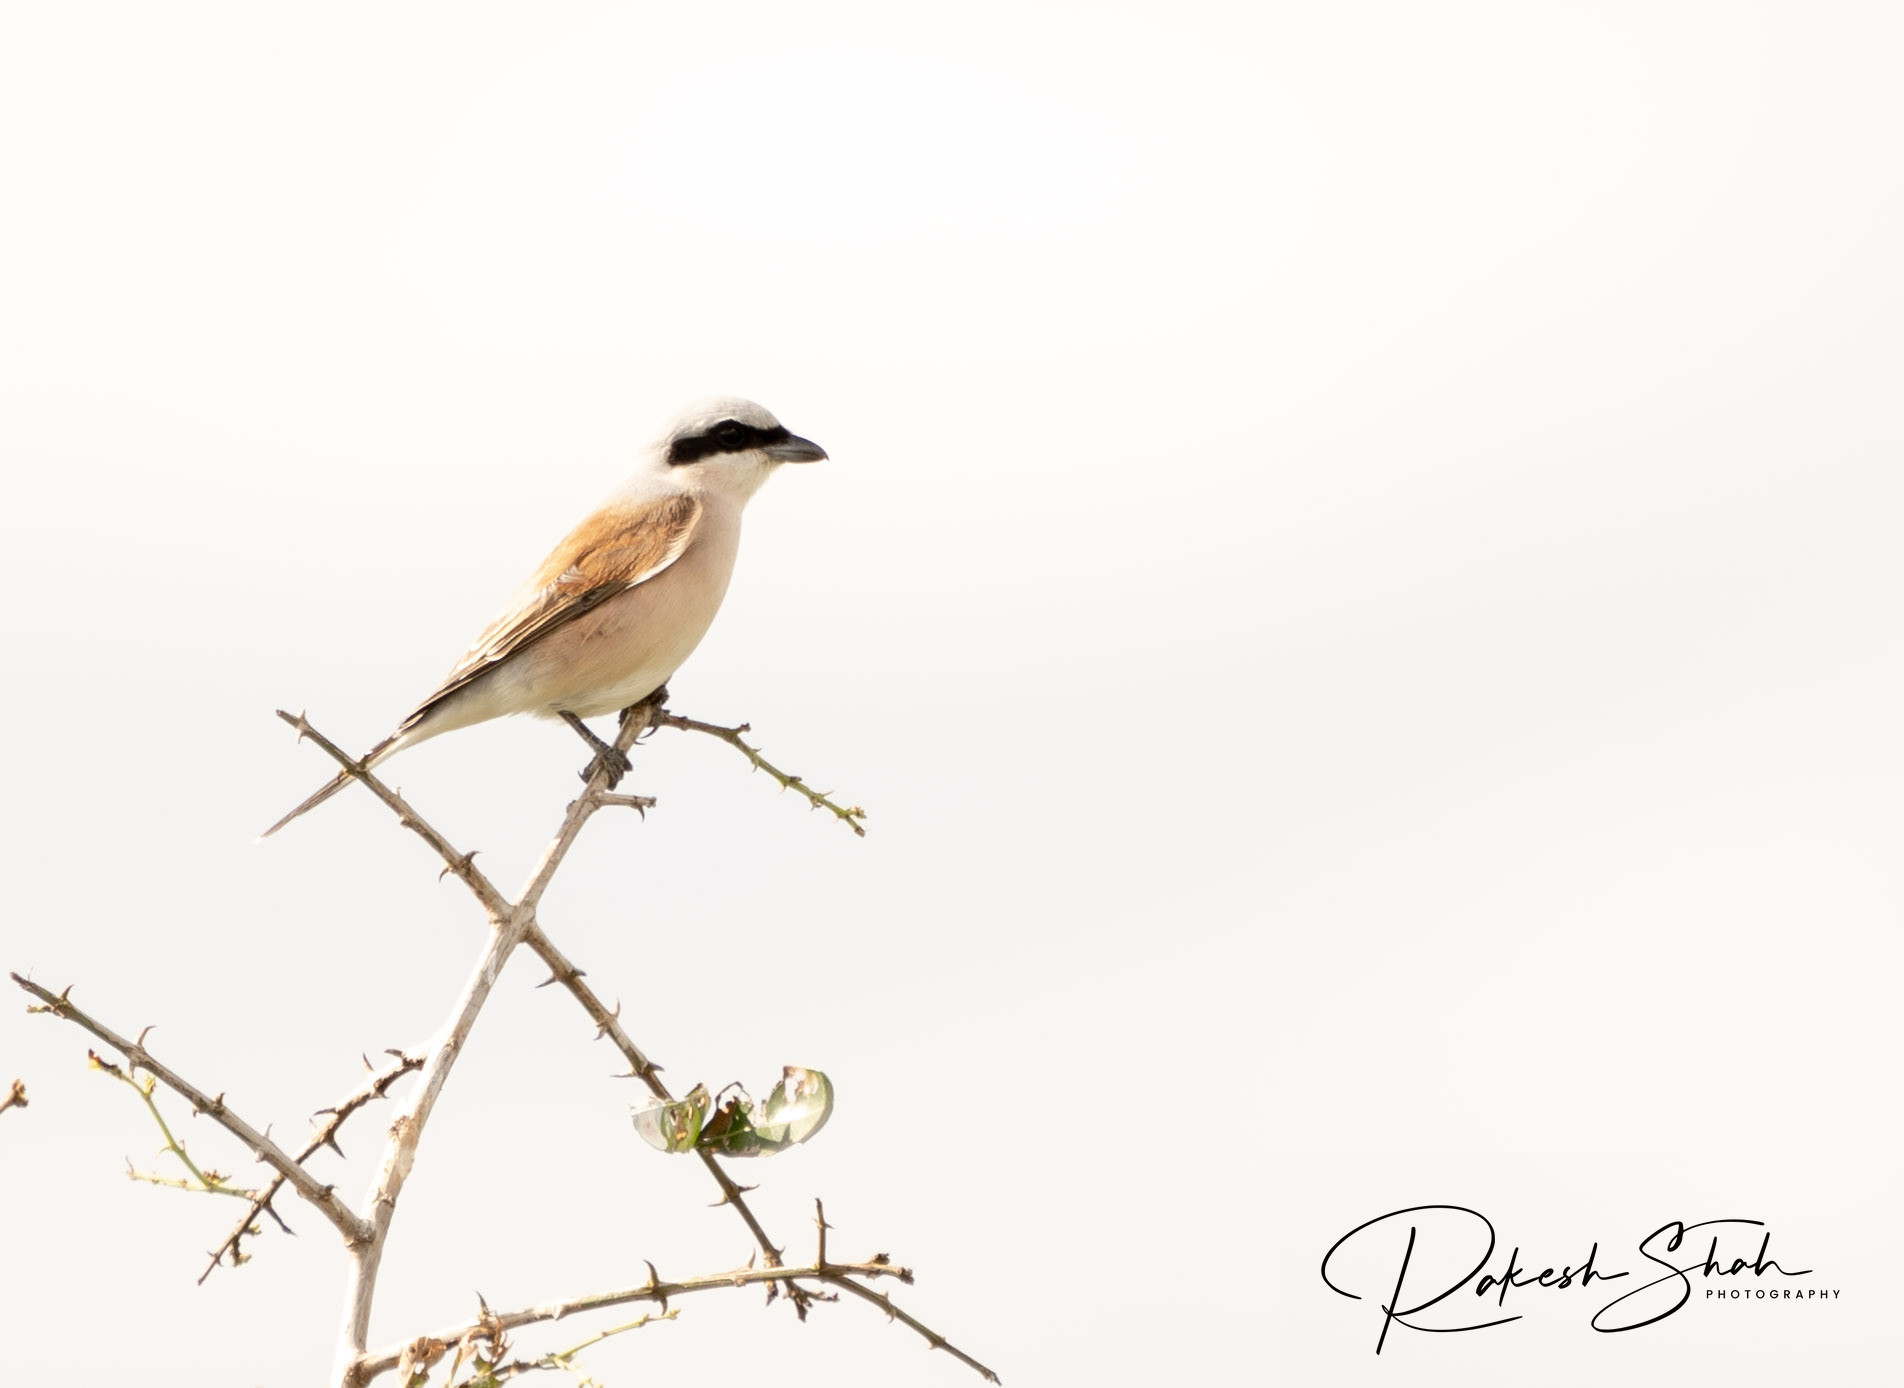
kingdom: Animalia
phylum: Chordata
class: Aves
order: Passeriformes
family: Laniidae
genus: Lanius
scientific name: Lanius collurio
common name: Red-backed shrike
